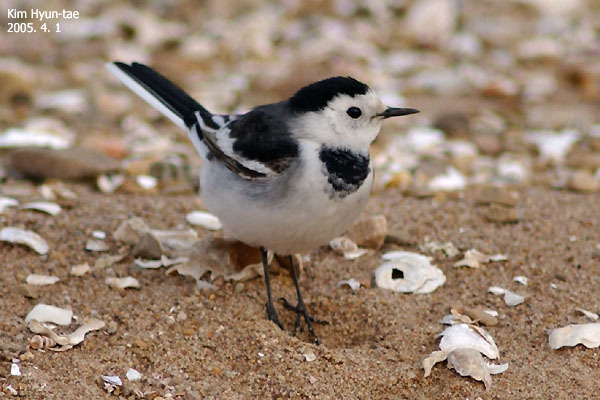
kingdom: Animalia
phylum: Chordata
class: Aves
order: Passeriformes
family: Motacillidae
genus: Motacilla
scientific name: Motacilla alba
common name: White wagtail
